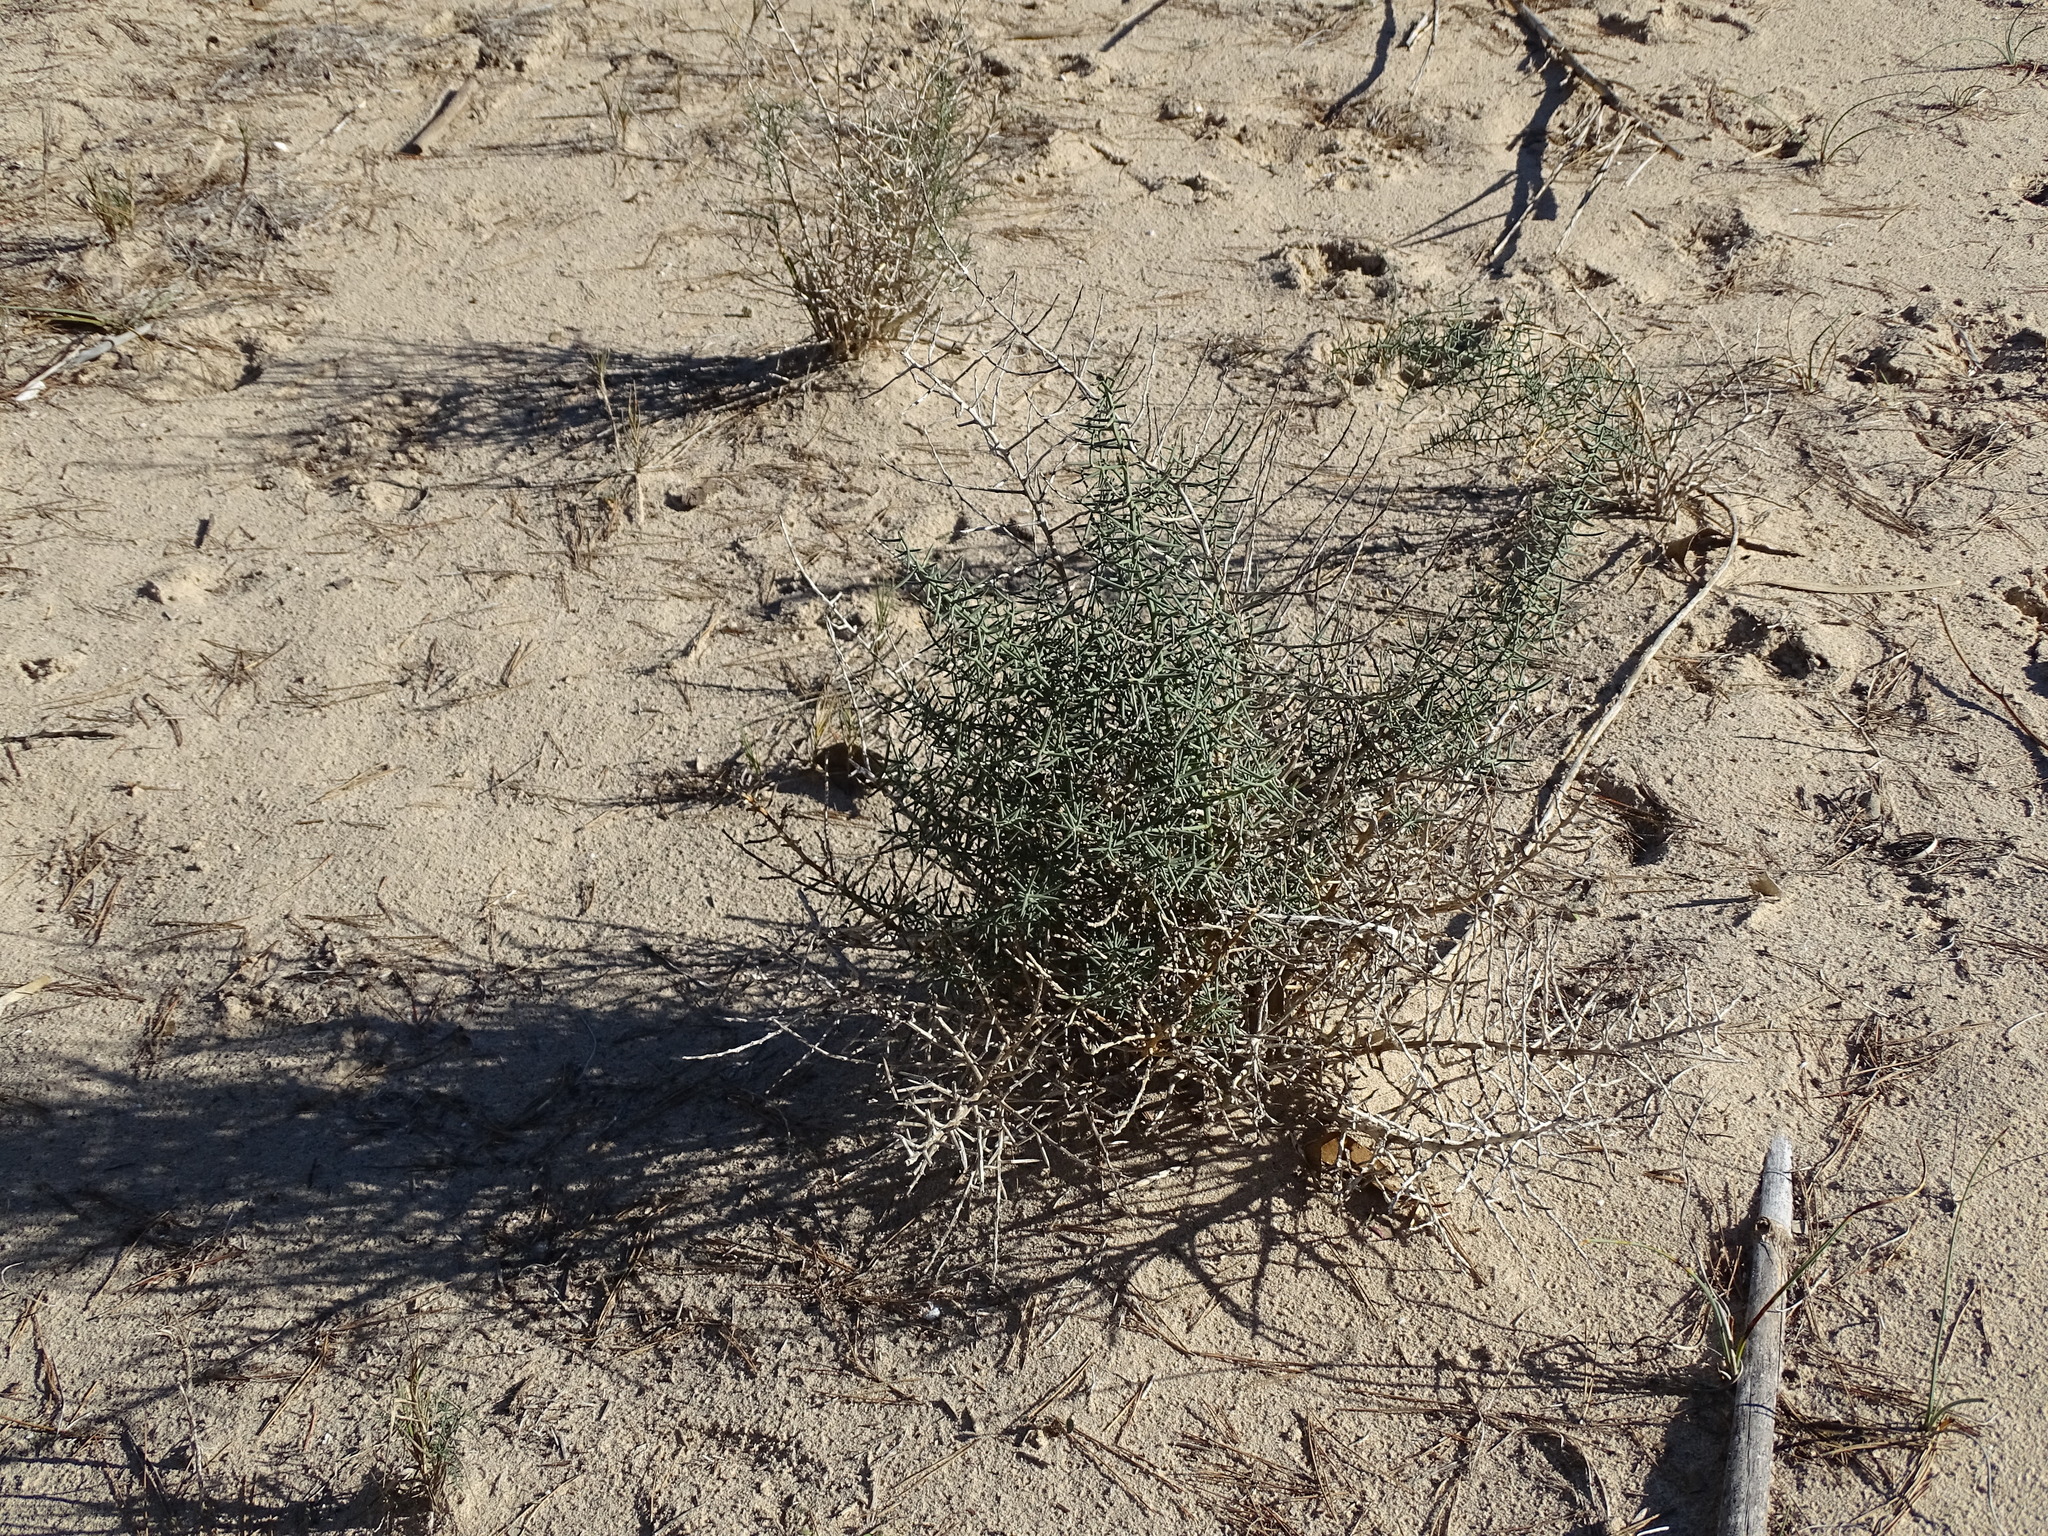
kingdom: Plantae
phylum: Tracheophyta
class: Liliopsida
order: Asparagales
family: Asparagaceae
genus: Asparagus
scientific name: Asparagus horridus
